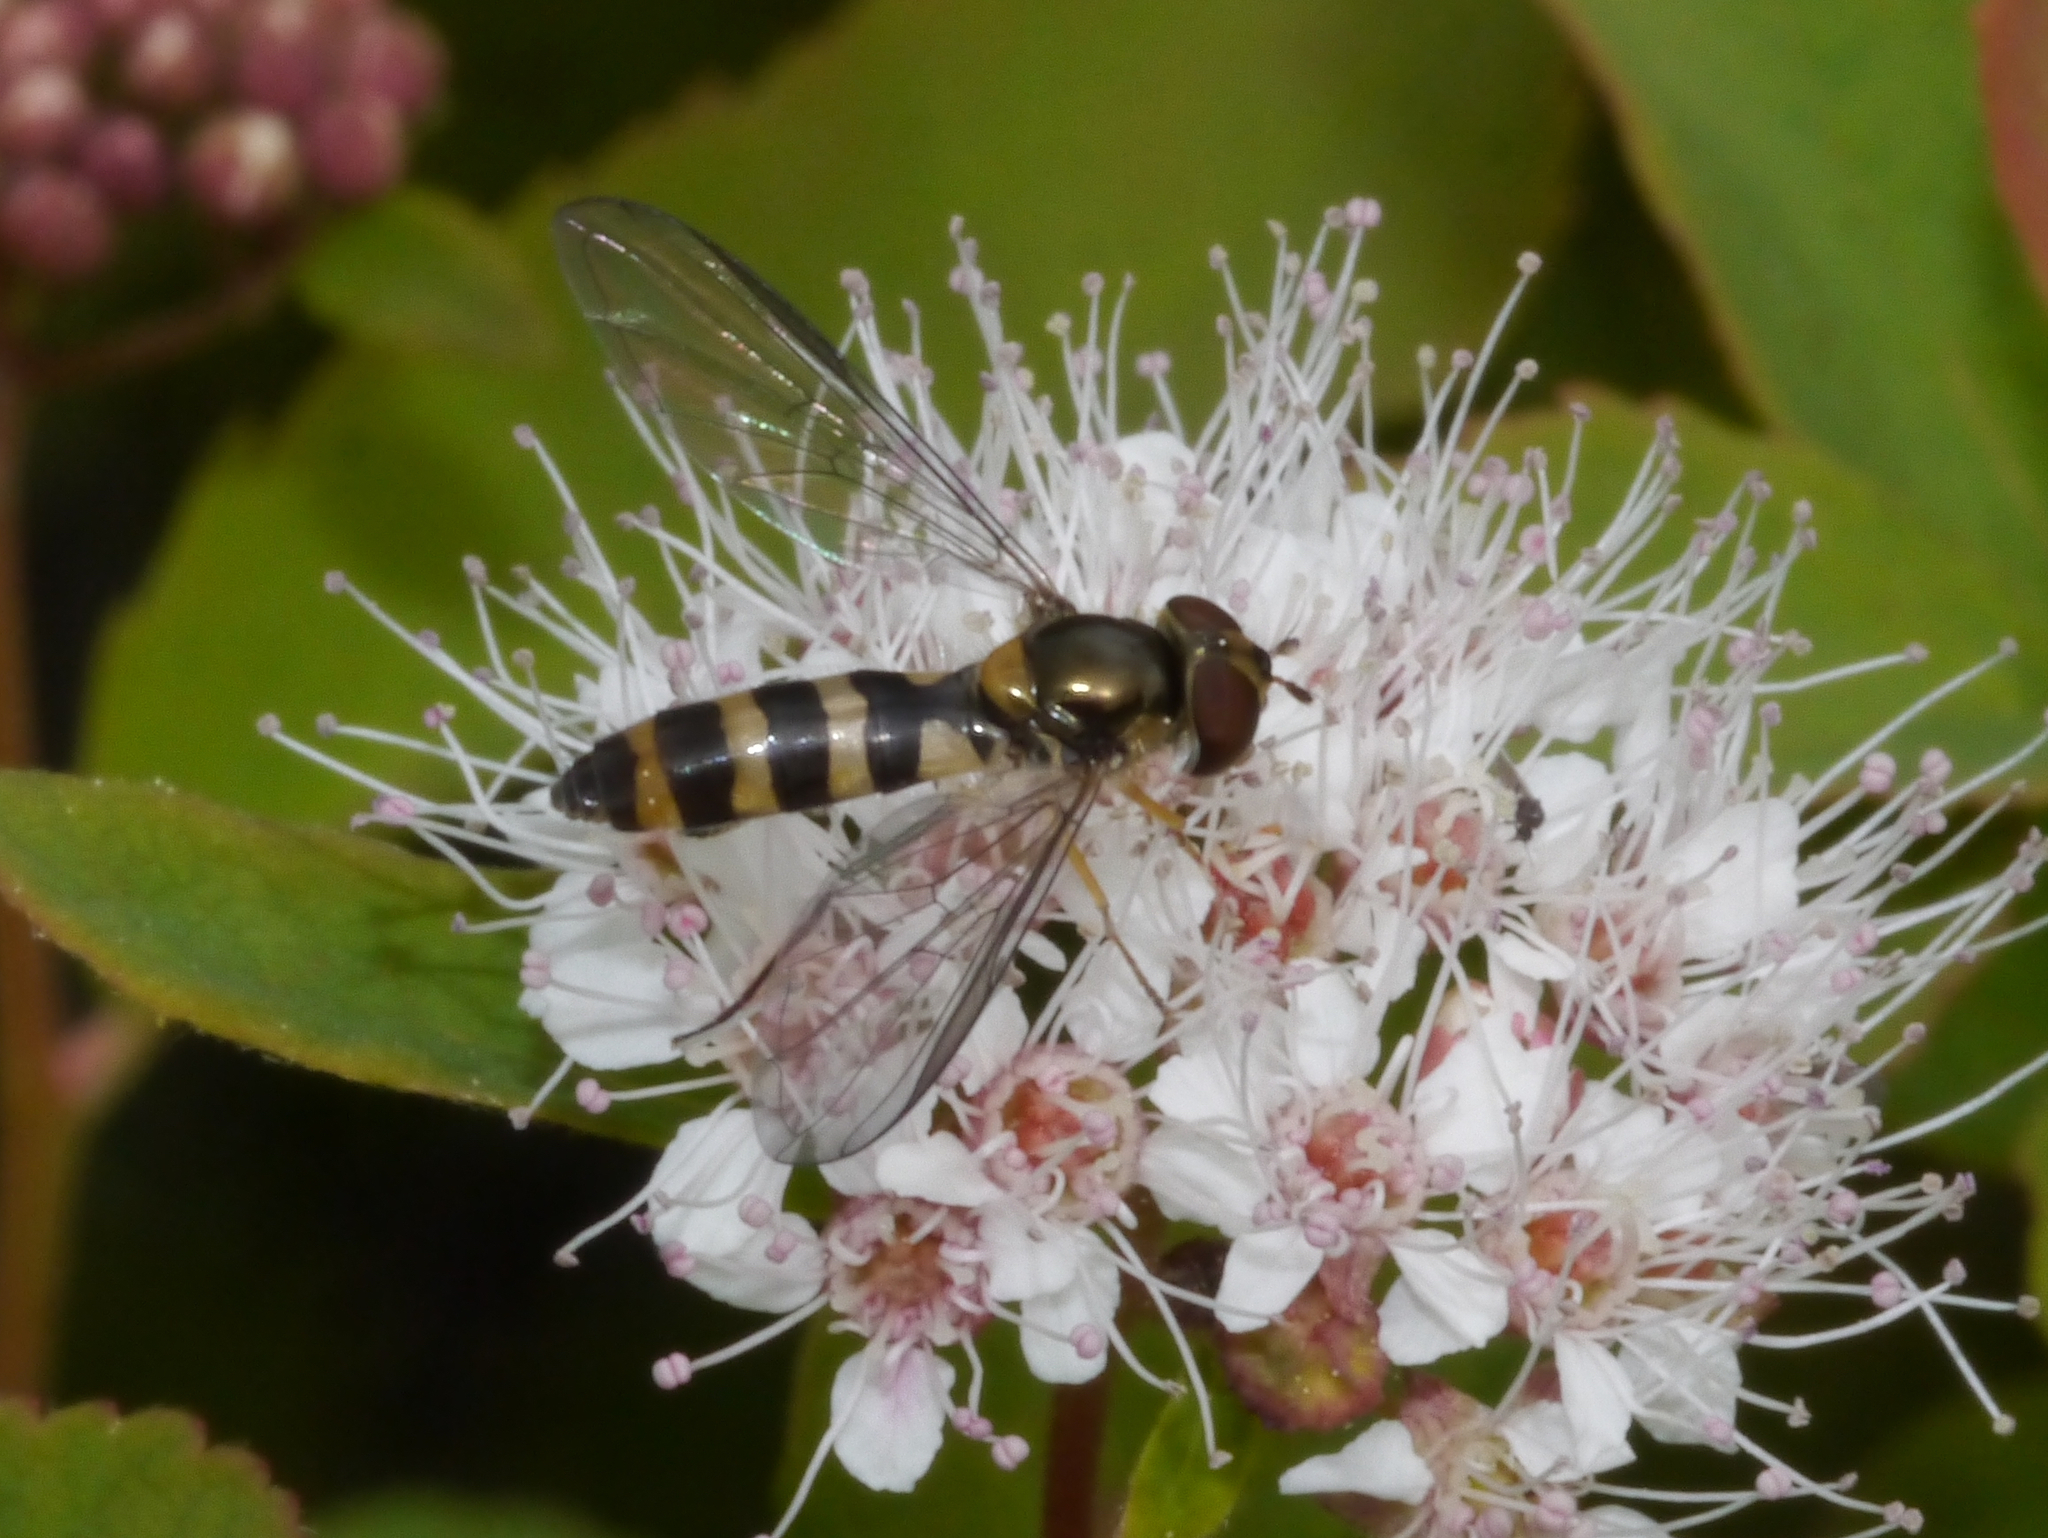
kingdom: Animalia
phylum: Arthropoda
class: Insecta
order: Diptera
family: Syrphidae
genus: Meliscaeva
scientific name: Meliscaeva cinctella
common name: American thintail fly
